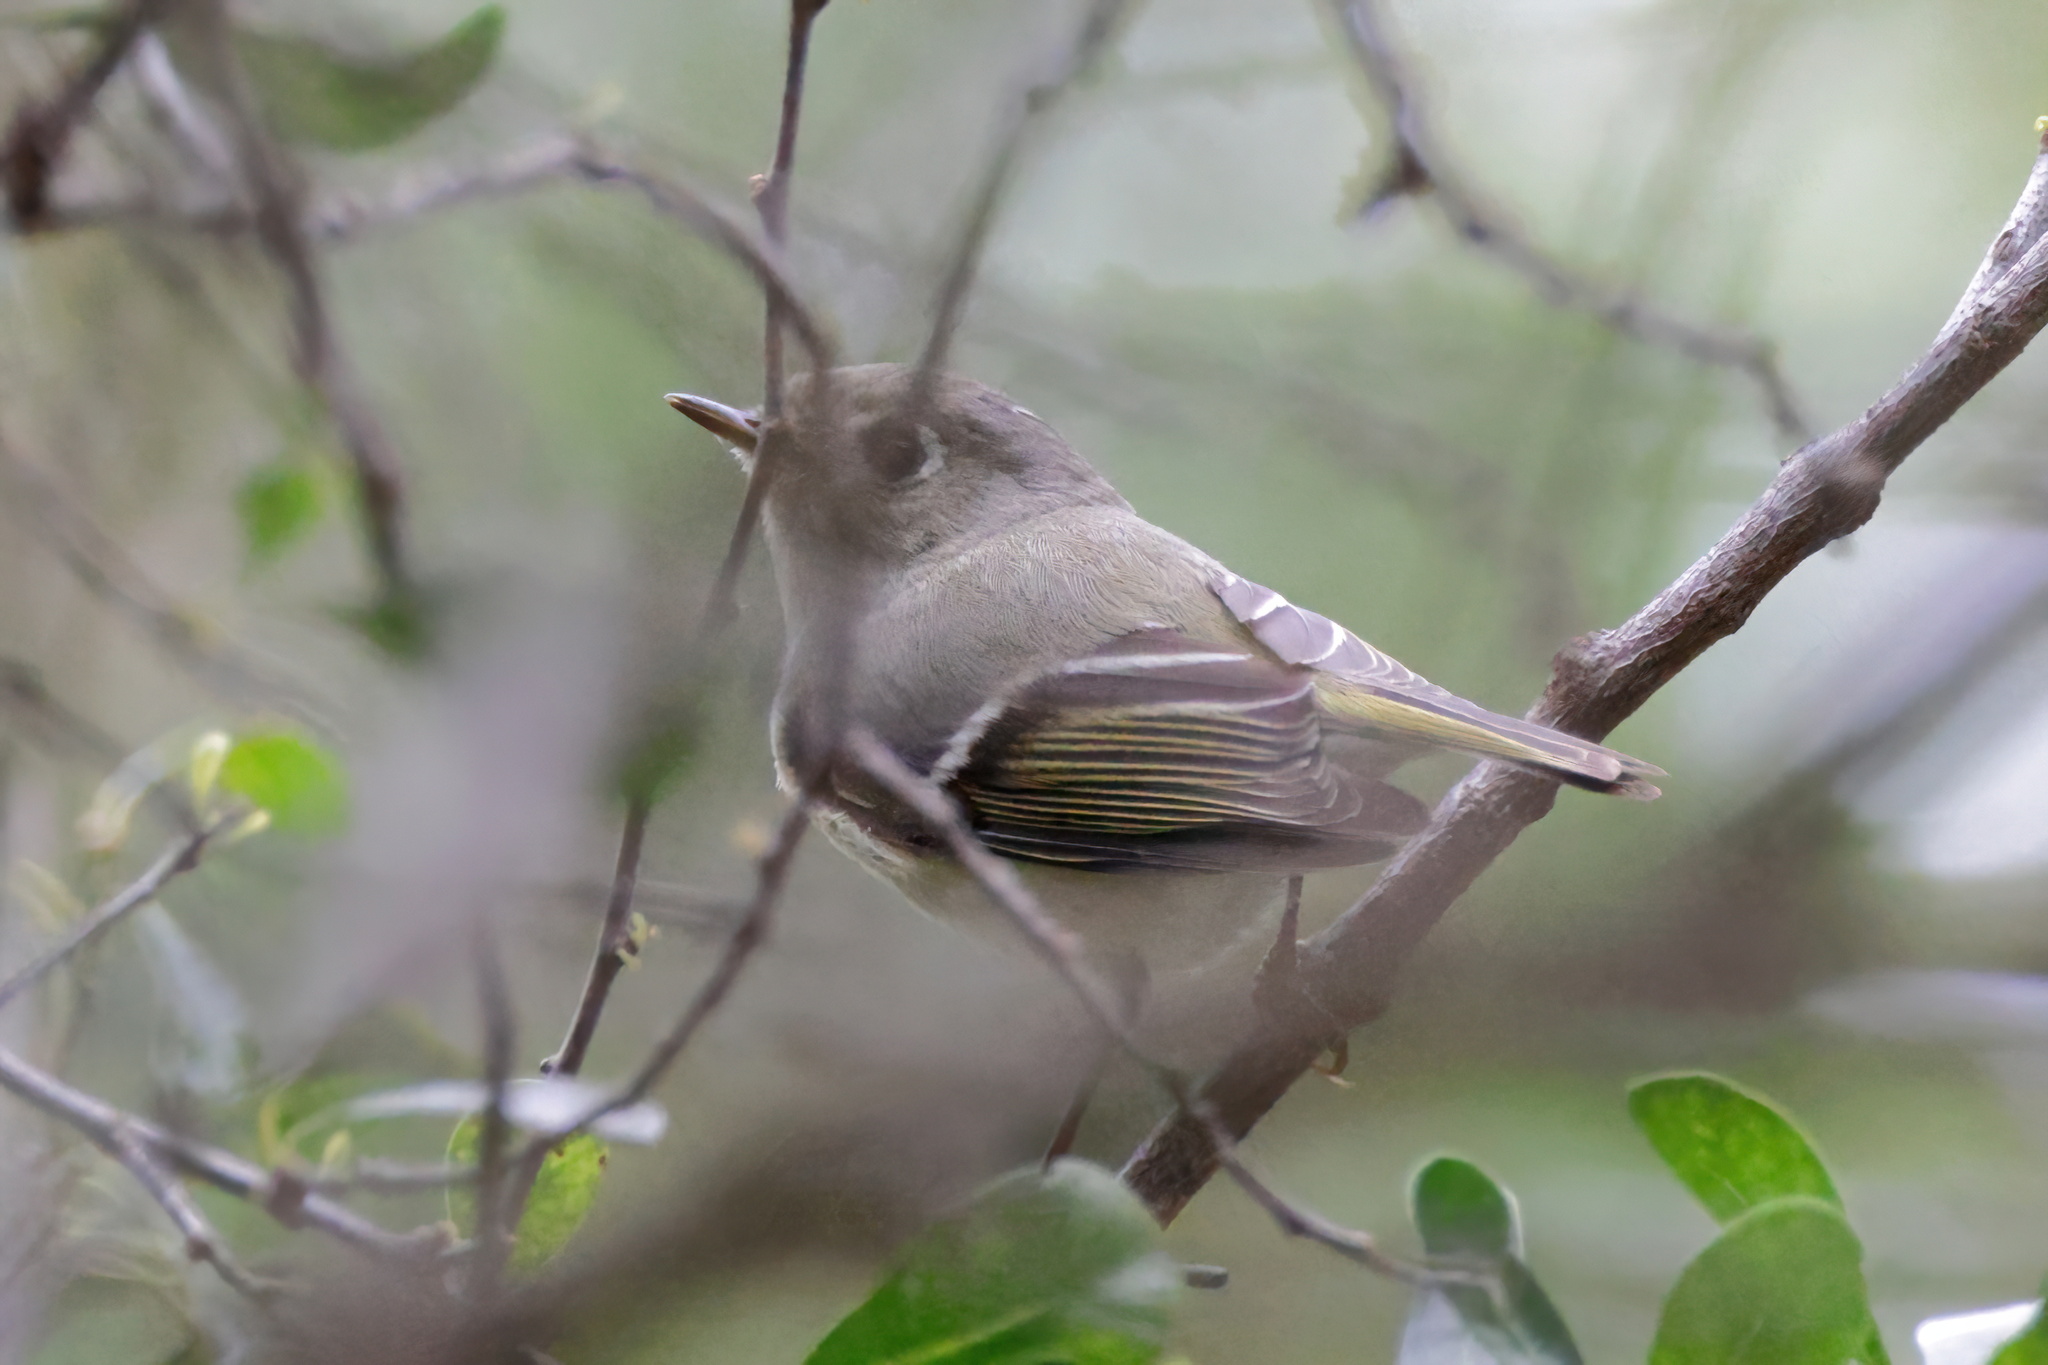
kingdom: Animalia
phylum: Chordata
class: Aves
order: Passeriformes
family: Regulidae
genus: Regulus
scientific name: Regulus calendula
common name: Ruby-crowned kinglet
